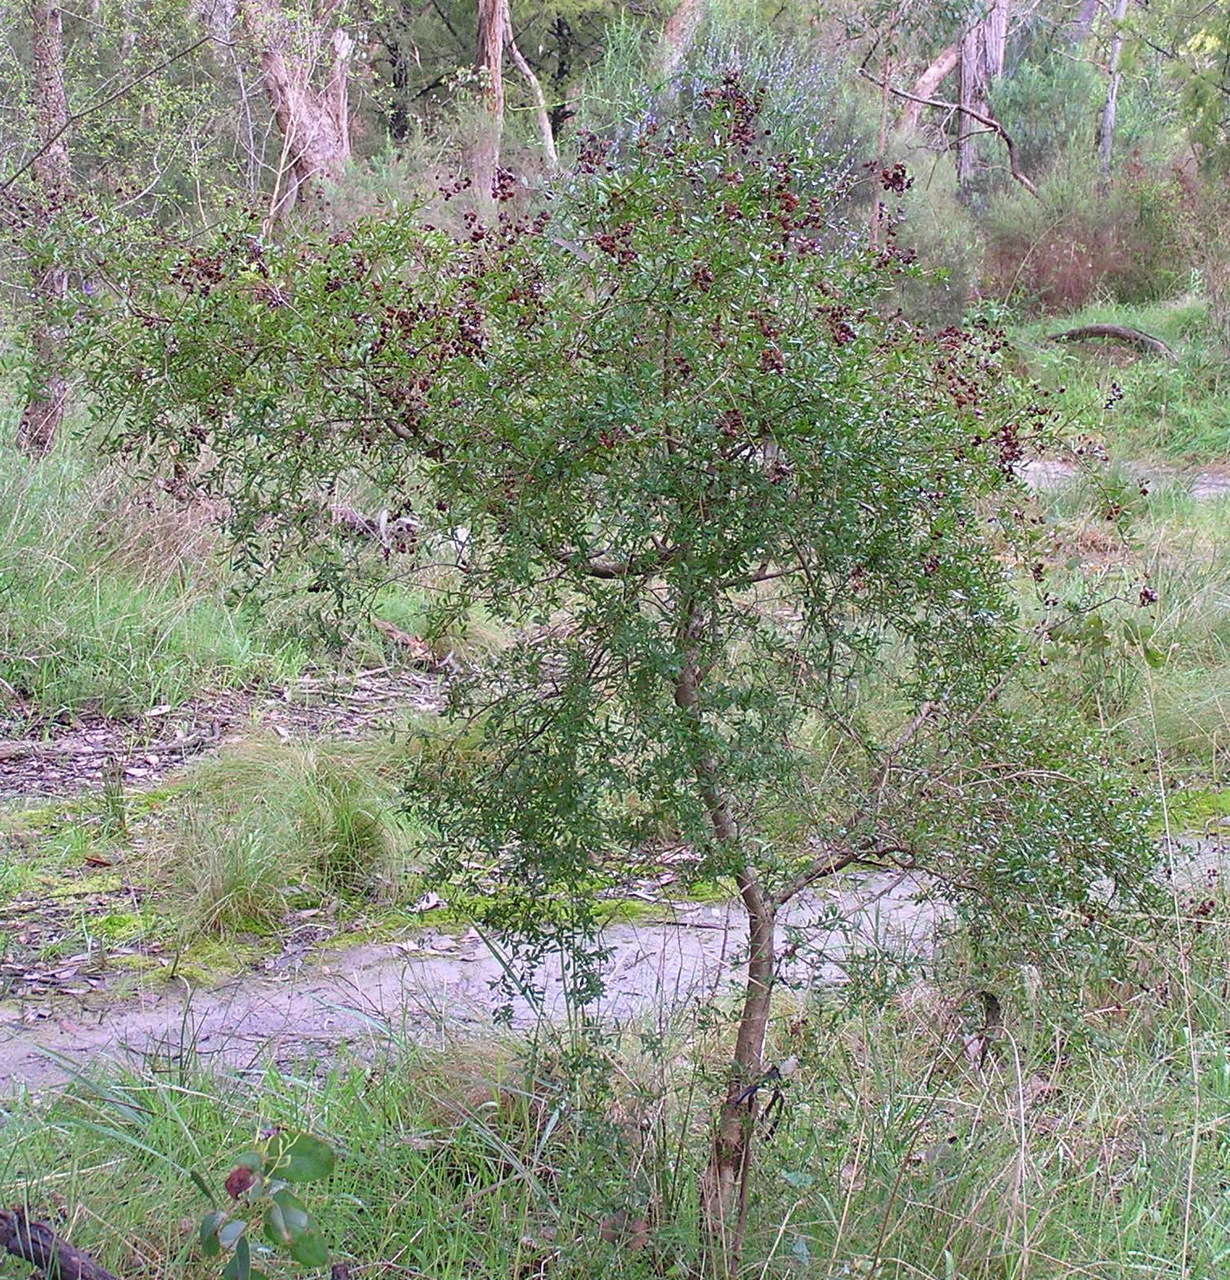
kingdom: Plantae
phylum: Tracheophyta
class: Magnoliopsida
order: Apiales
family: Pittosporaceae
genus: Bursaria
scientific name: Bursaria spinosa
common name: Australian blackthorn
